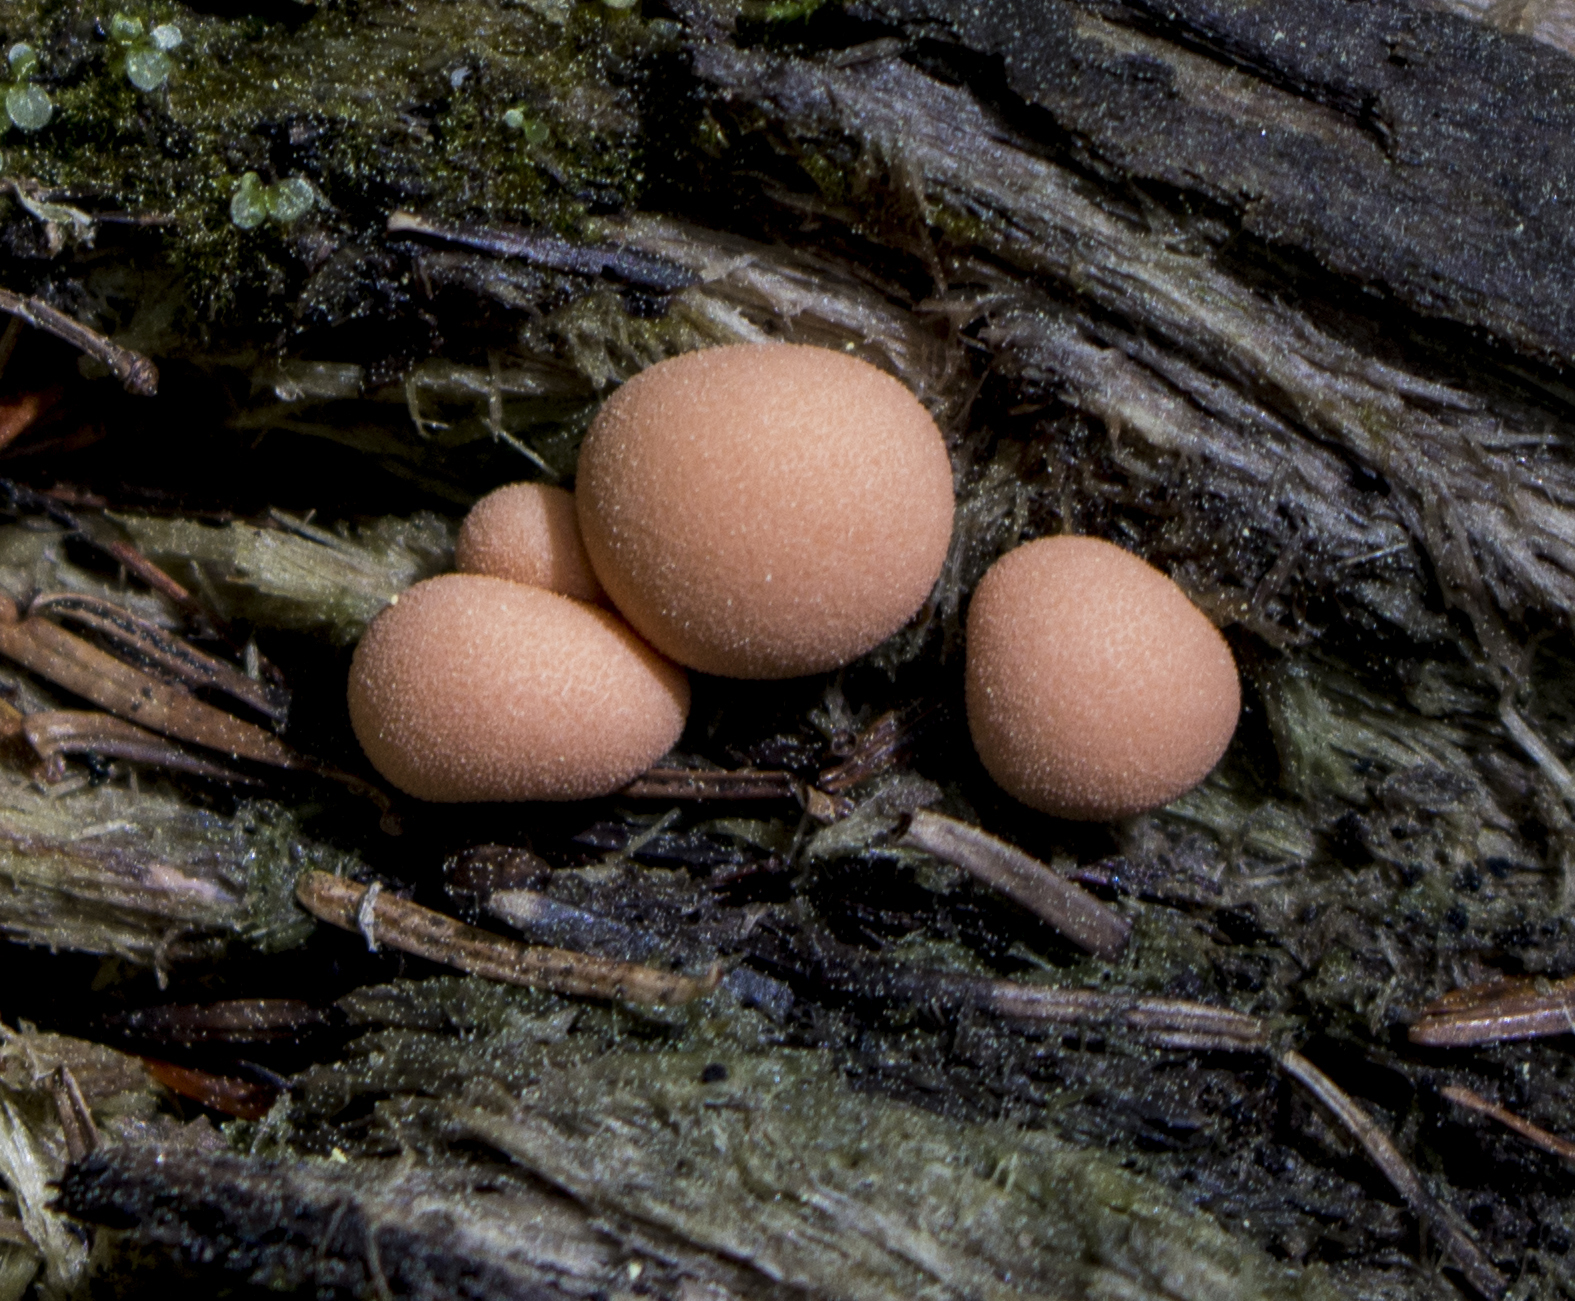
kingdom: Protozoa
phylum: Mycetozoa
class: Myxomycetes
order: Cribrariales
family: Tubiferaceae
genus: Lycogala
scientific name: Lycogala epidendrum
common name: Wolf's milk
